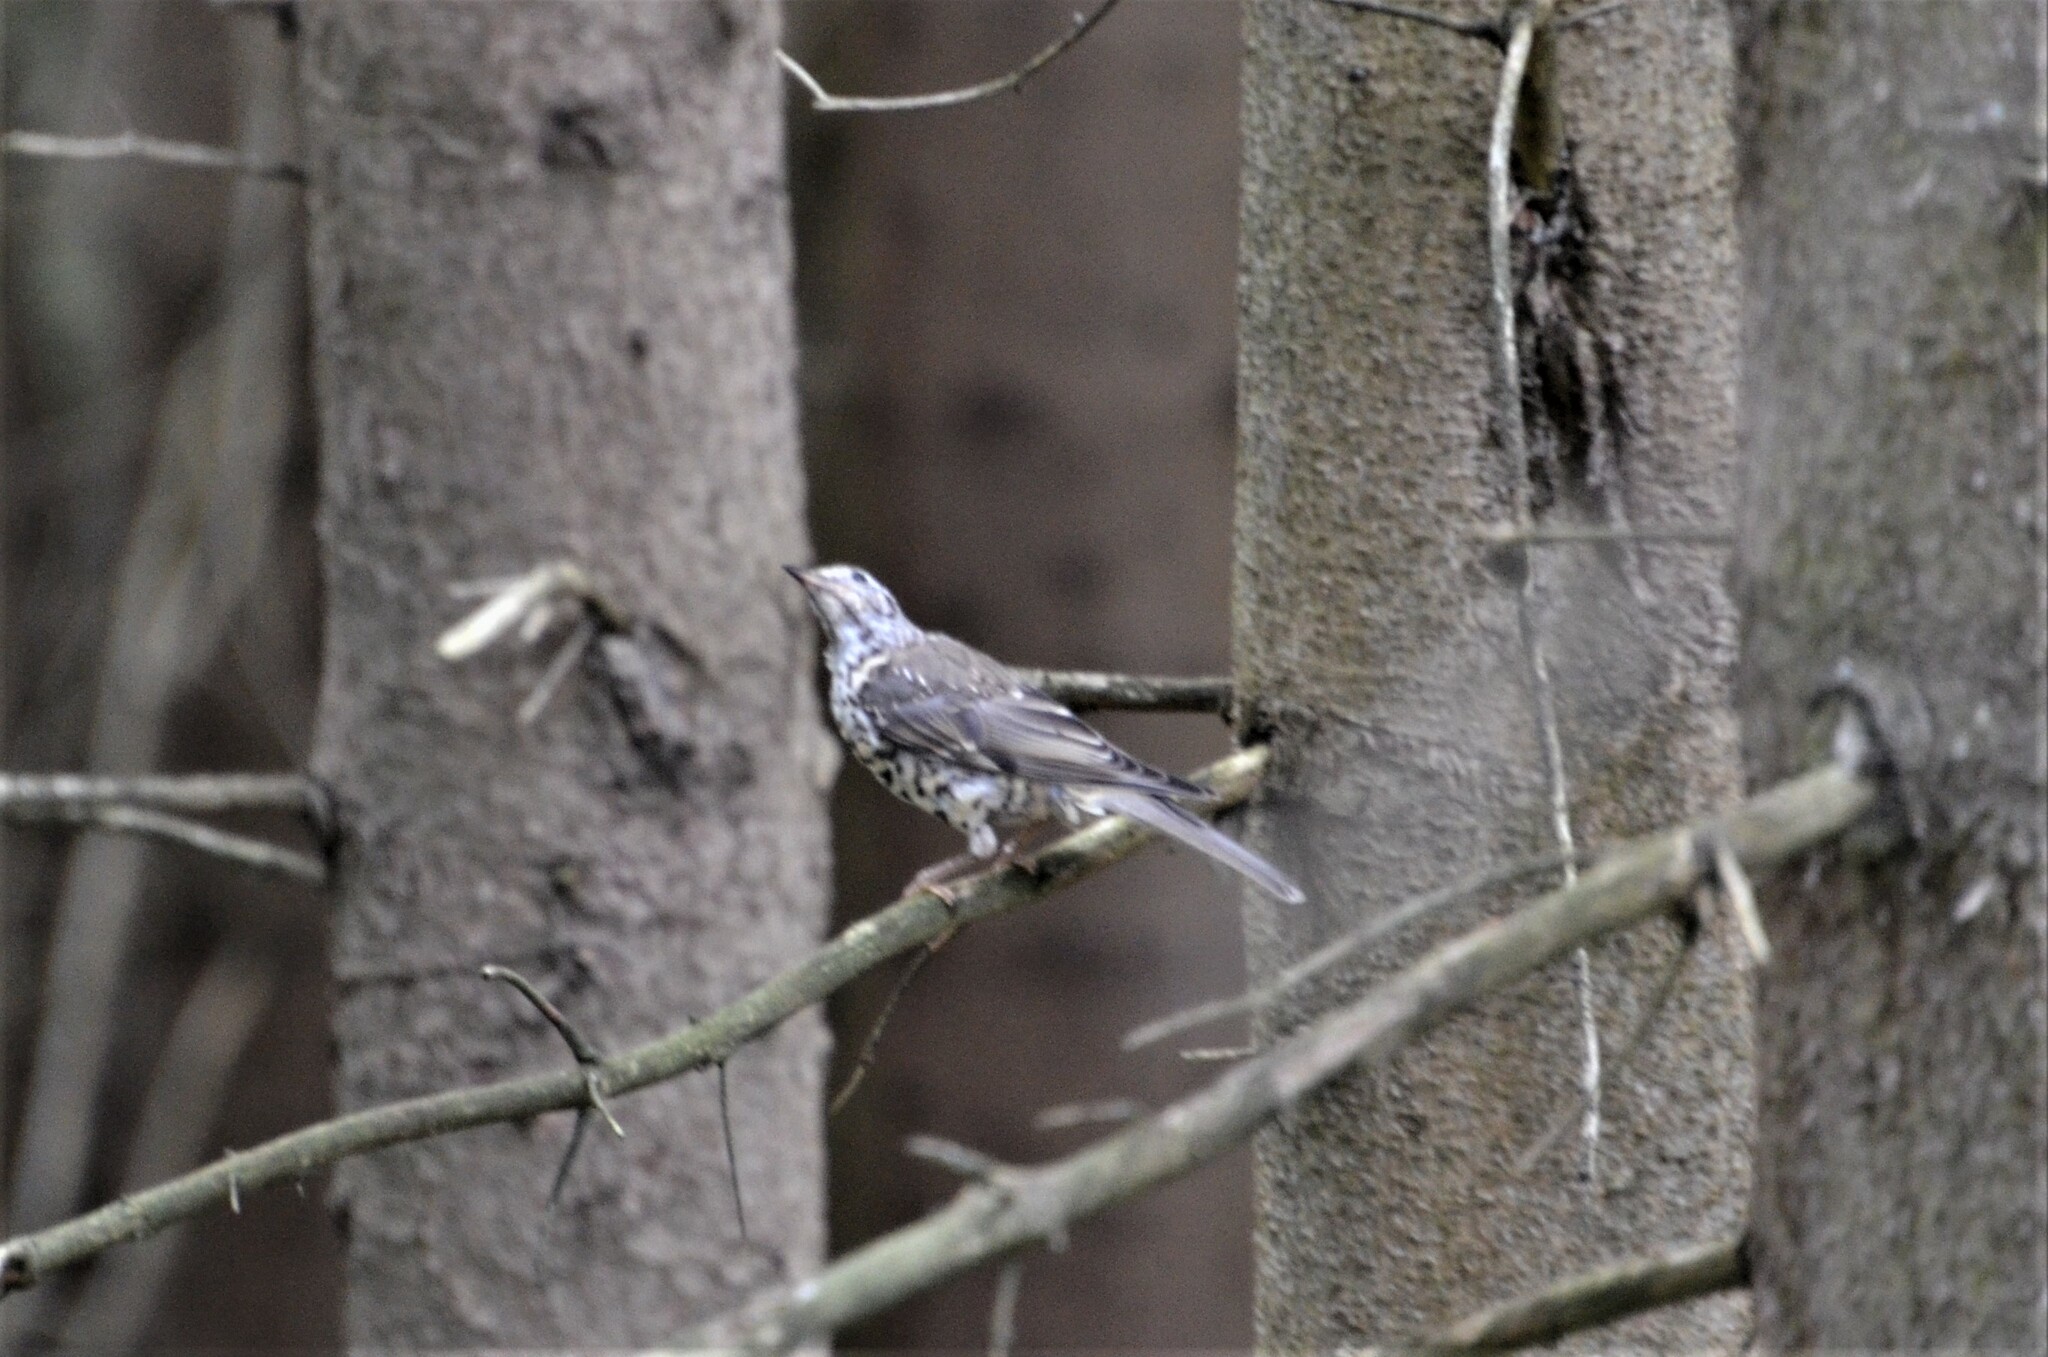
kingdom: Animalia
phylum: Chordata
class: Aves
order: Passeriformes
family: Turdidae
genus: Turdus
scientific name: Turdus viscivorus
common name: Mistle thrush
